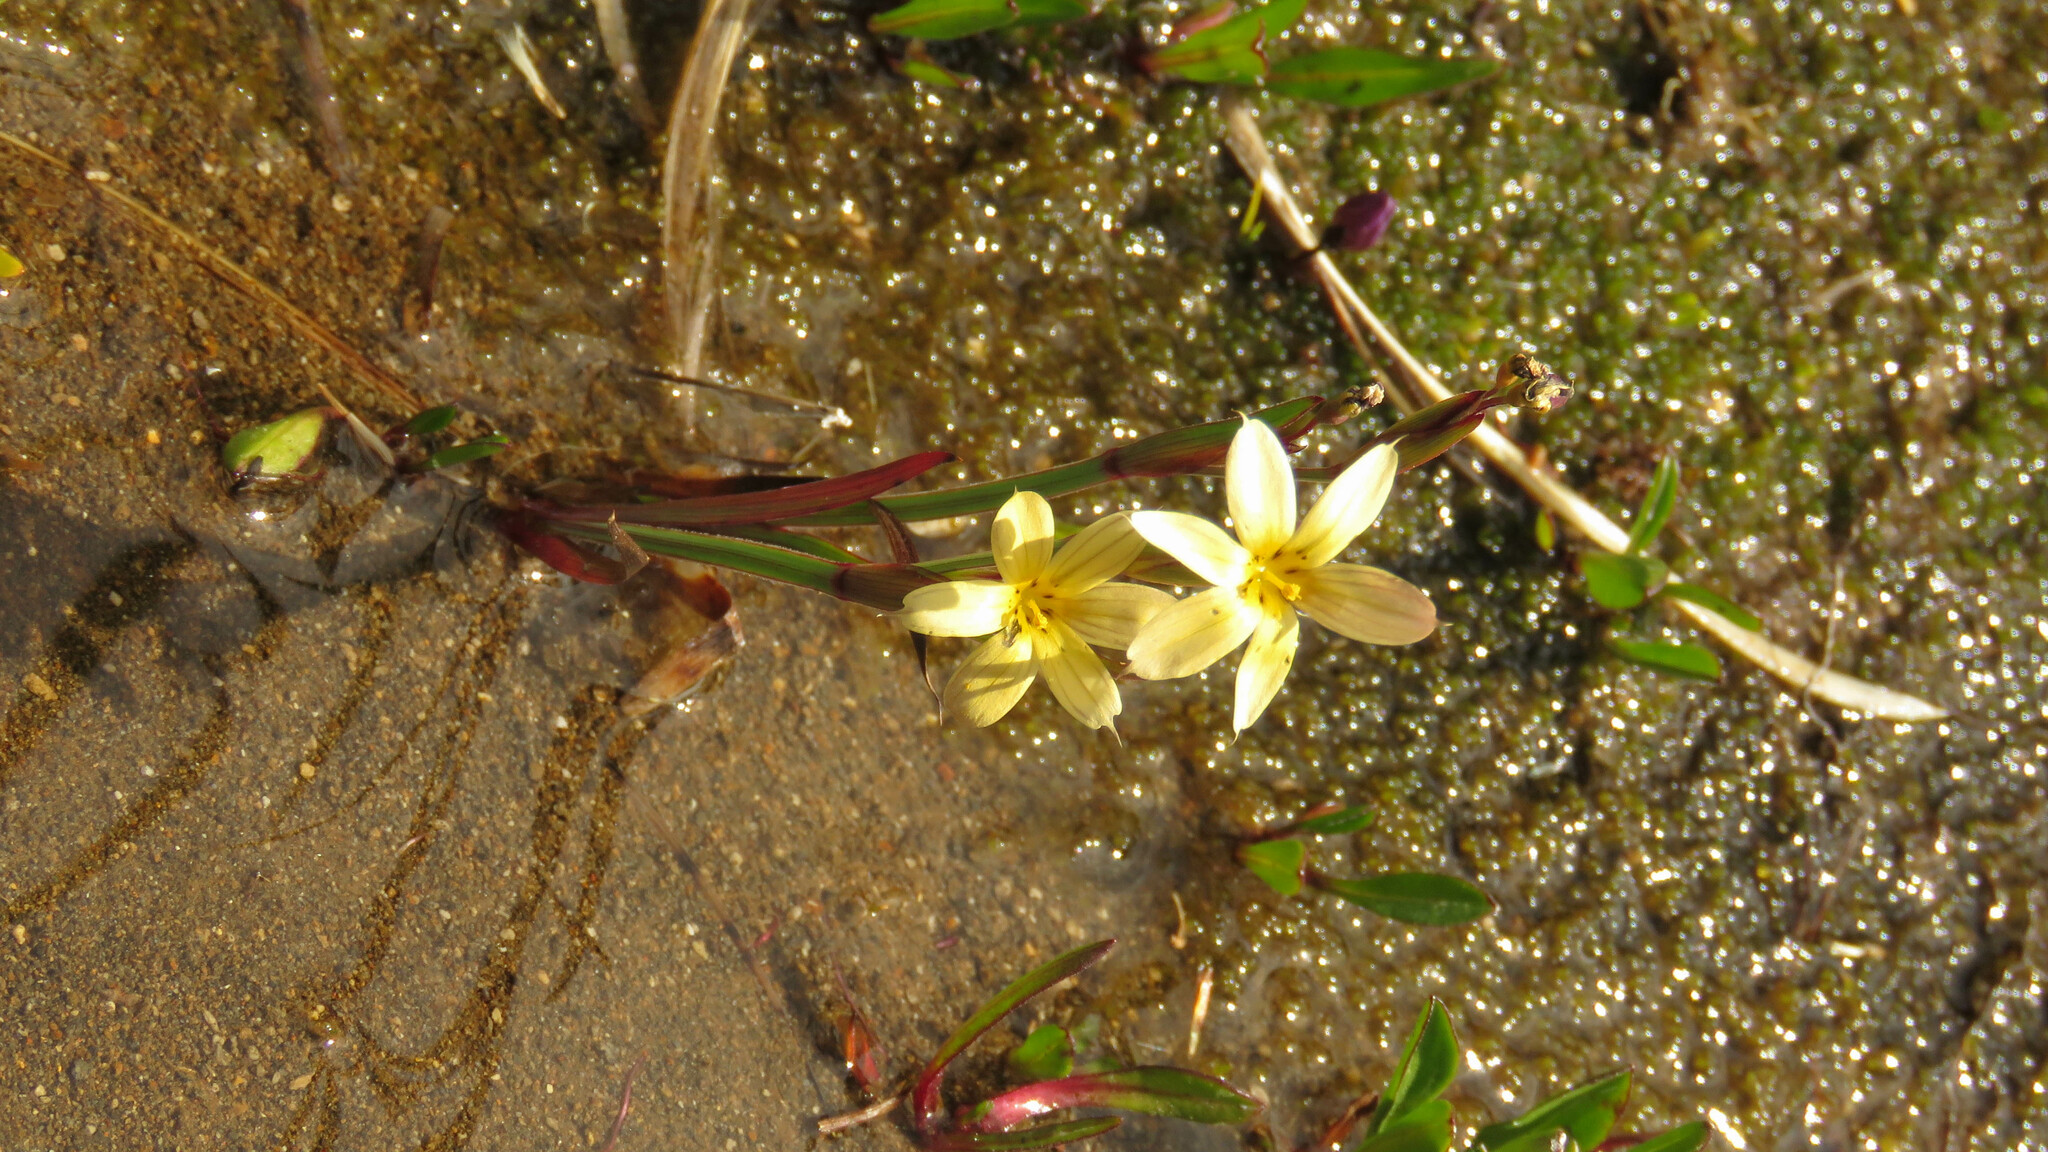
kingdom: Plantae
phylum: Tracheophyta
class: Liliopsida
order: Asparagales
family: Iridaceae
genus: Sisyrinchium
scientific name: Sisyrinchium patagonicum
